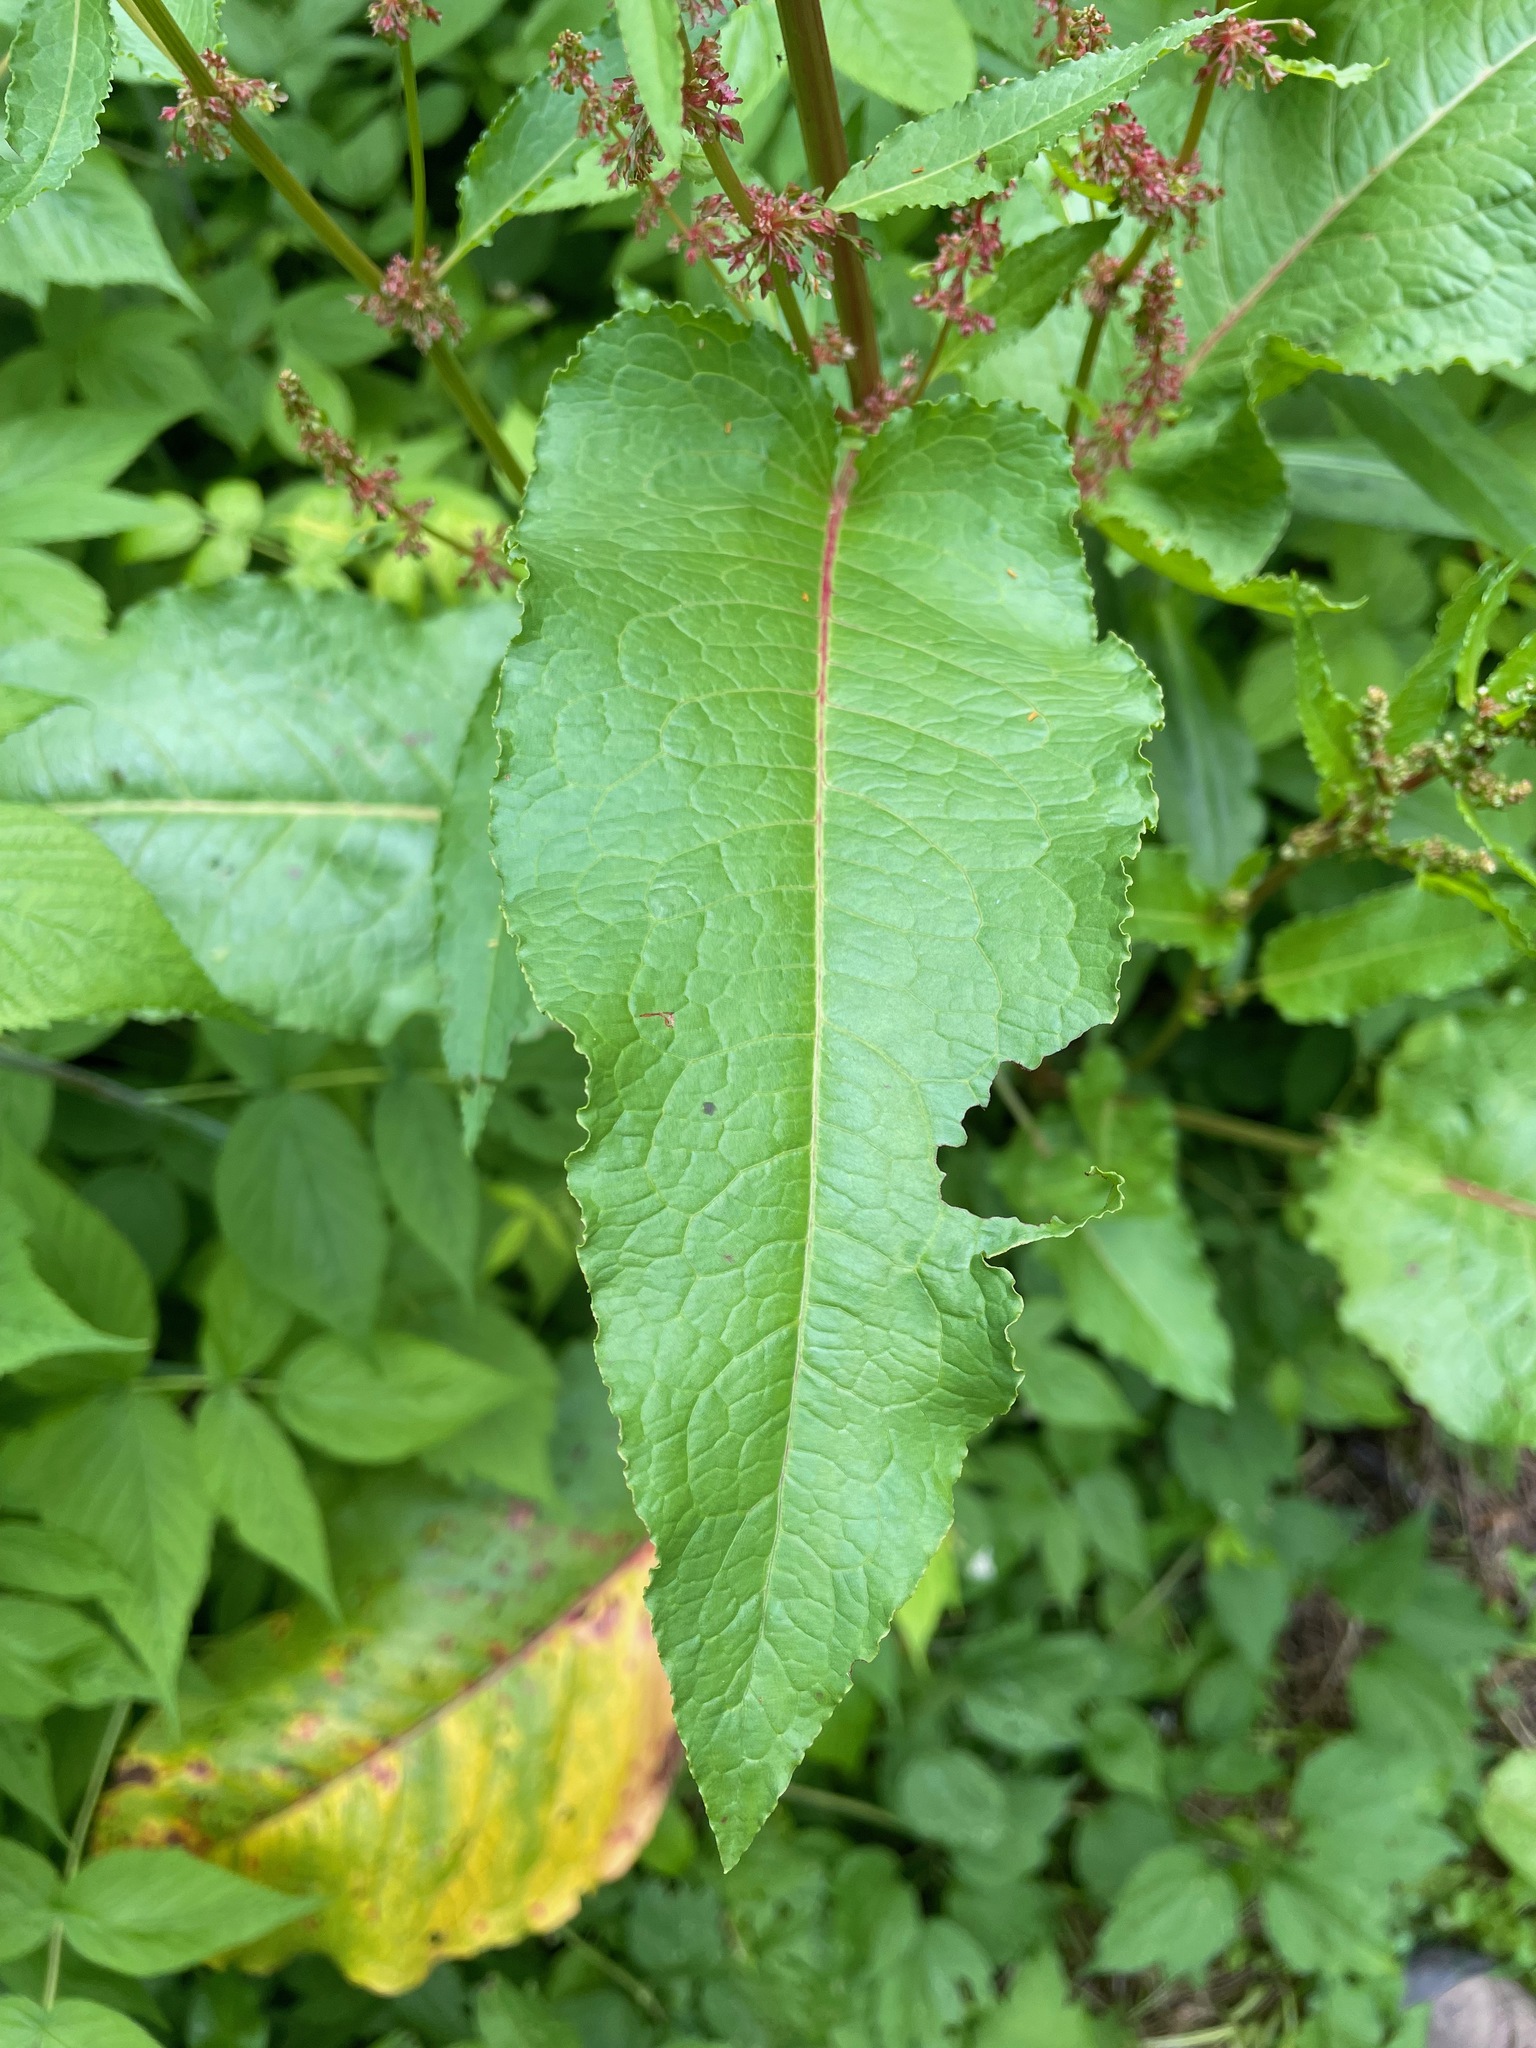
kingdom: Plantae
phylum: Tracheophyta
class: Magnoliopsida
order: Caryophyllales
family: Polygonaceae
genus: Rumex
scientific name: Rumex obtusifolius
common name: Bitter dock
